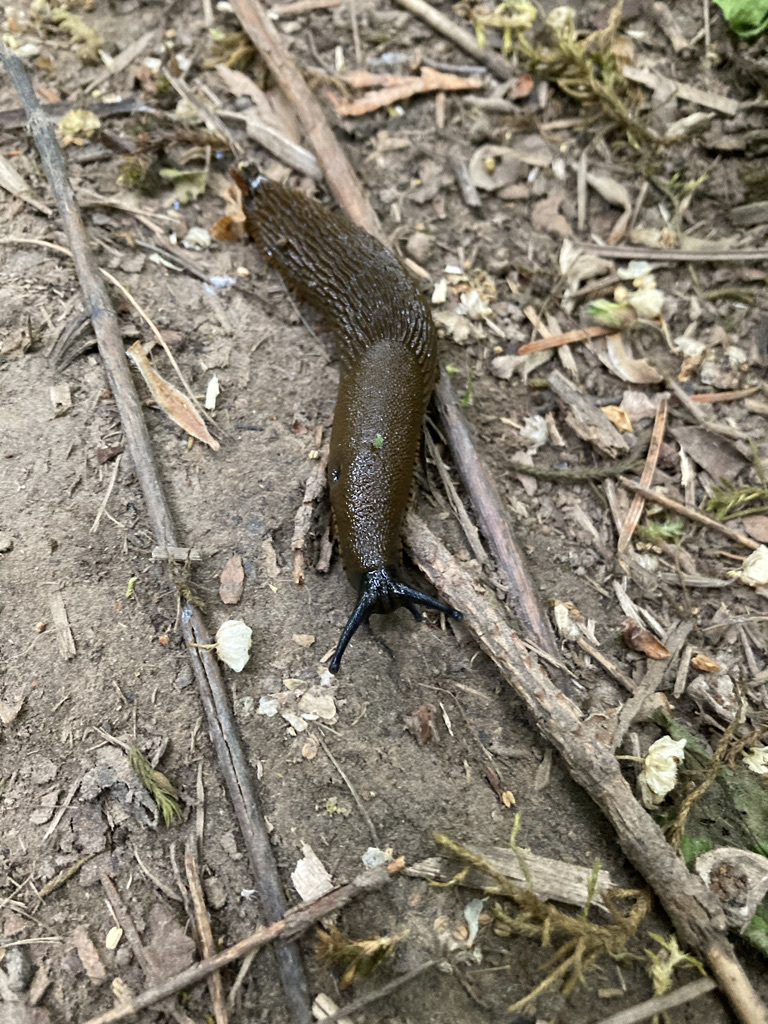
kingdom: Animalia
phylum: Mollusca
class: Gastropoda
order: Stylommatophora
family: Arionidae
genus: Arion
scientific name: Arion
